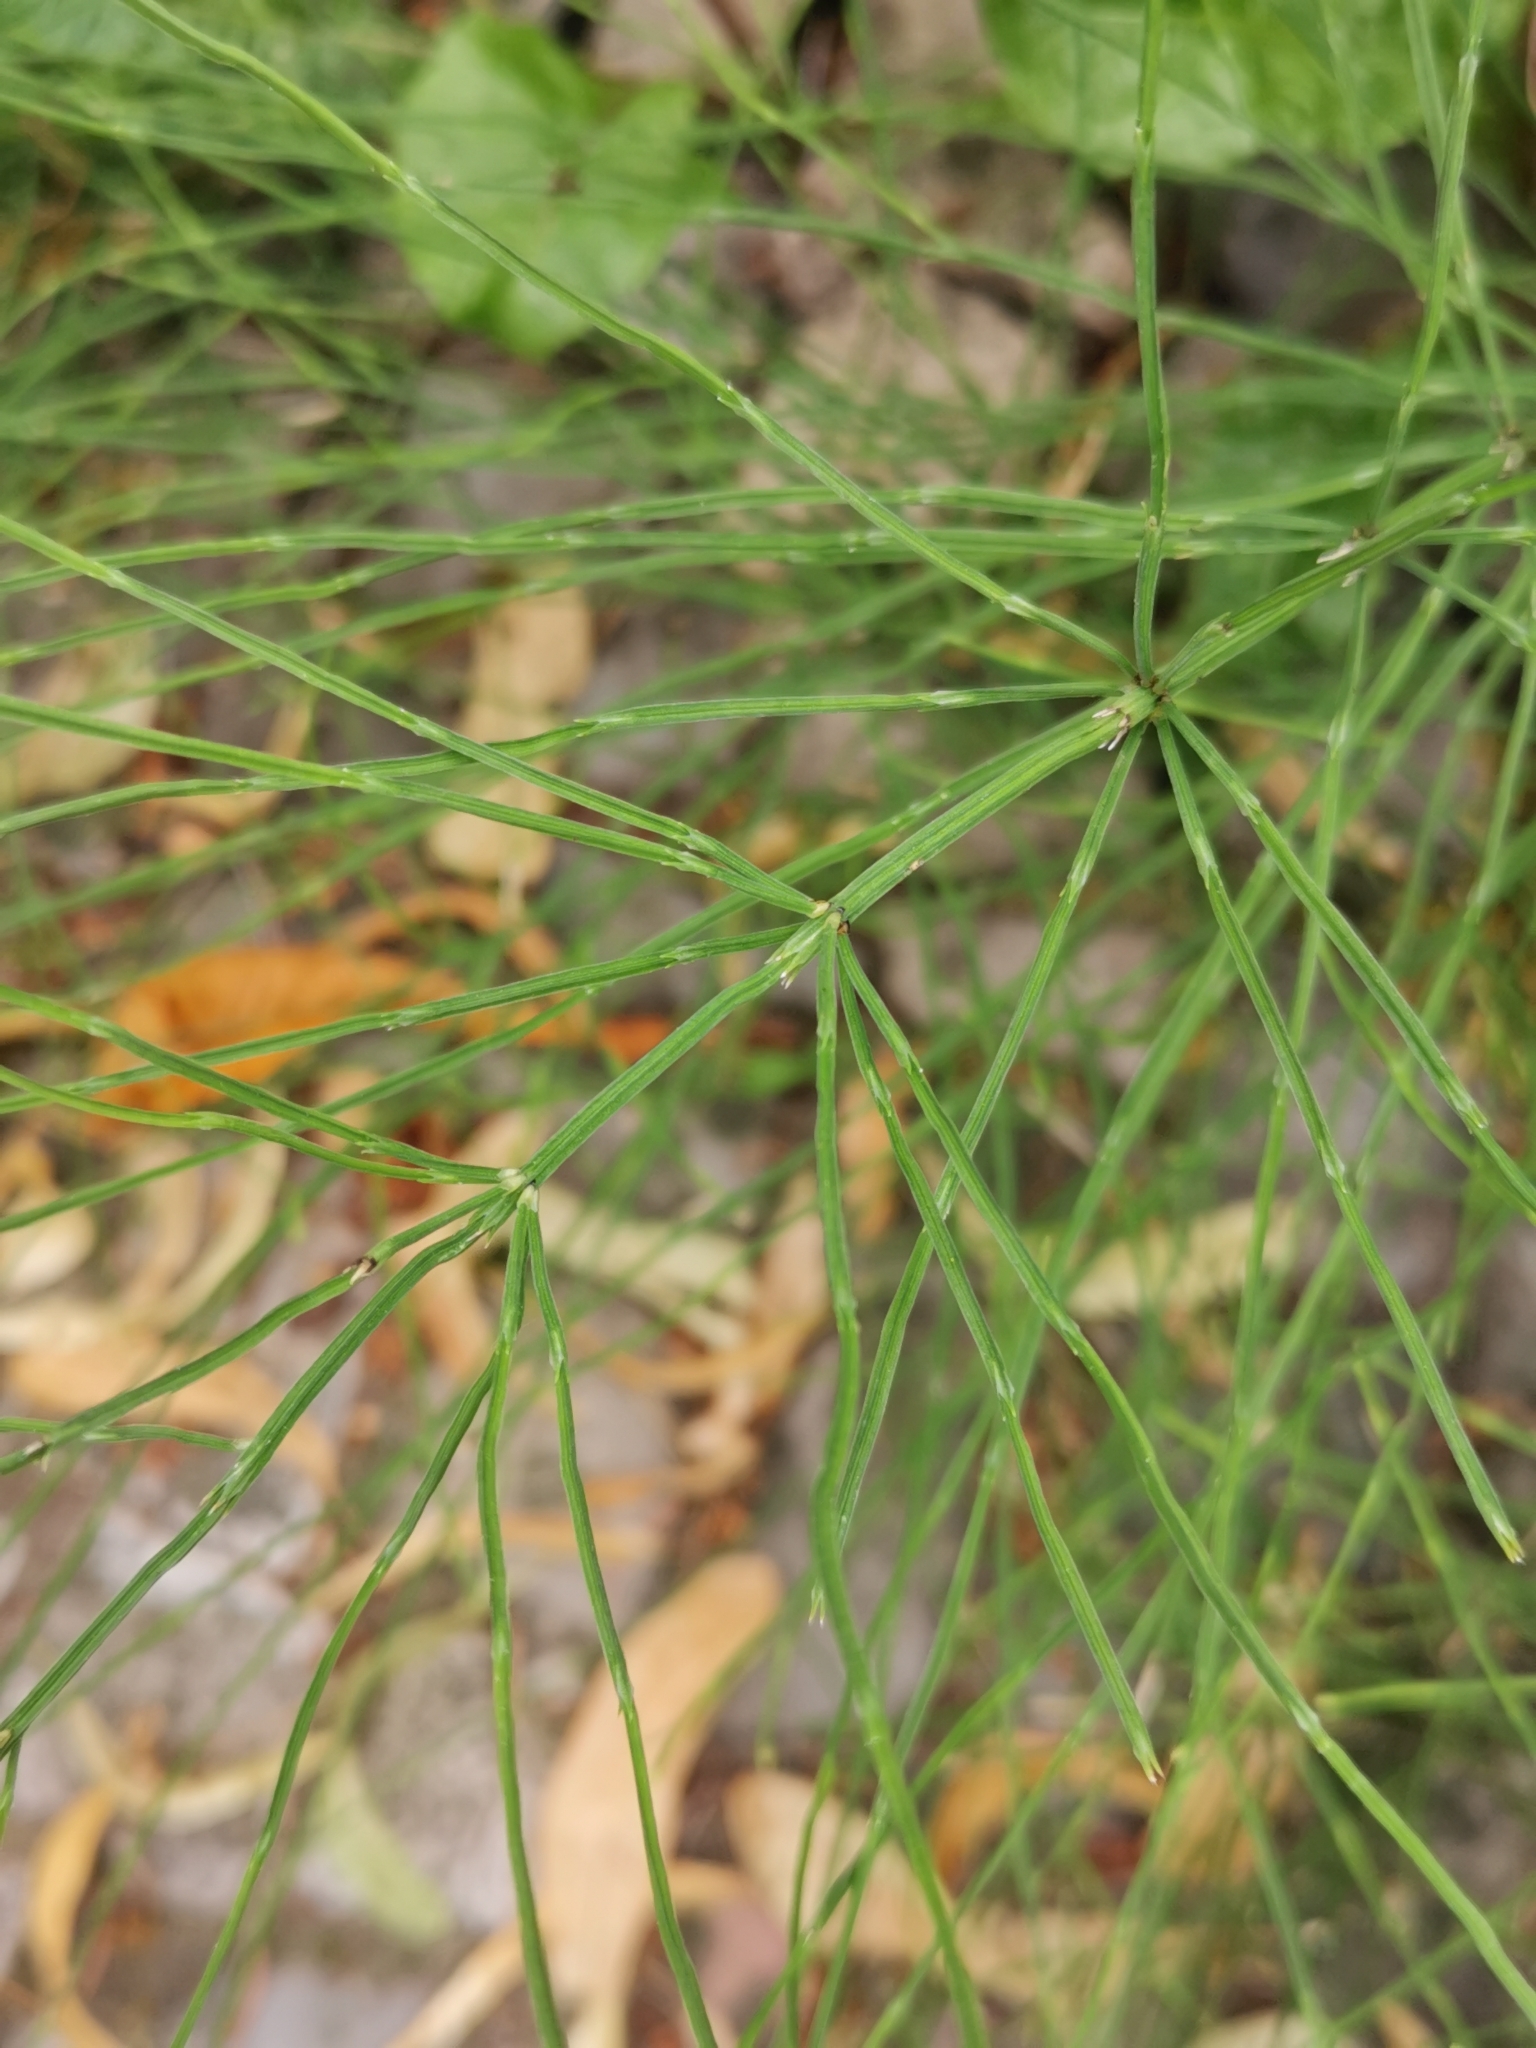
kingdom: Plantae
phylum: Tracheophyta
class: Polypodiopsida
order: Equisetales
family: Equisetaceae
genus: Equisetum
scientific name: Equisetum arvense
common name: Field horsetail
